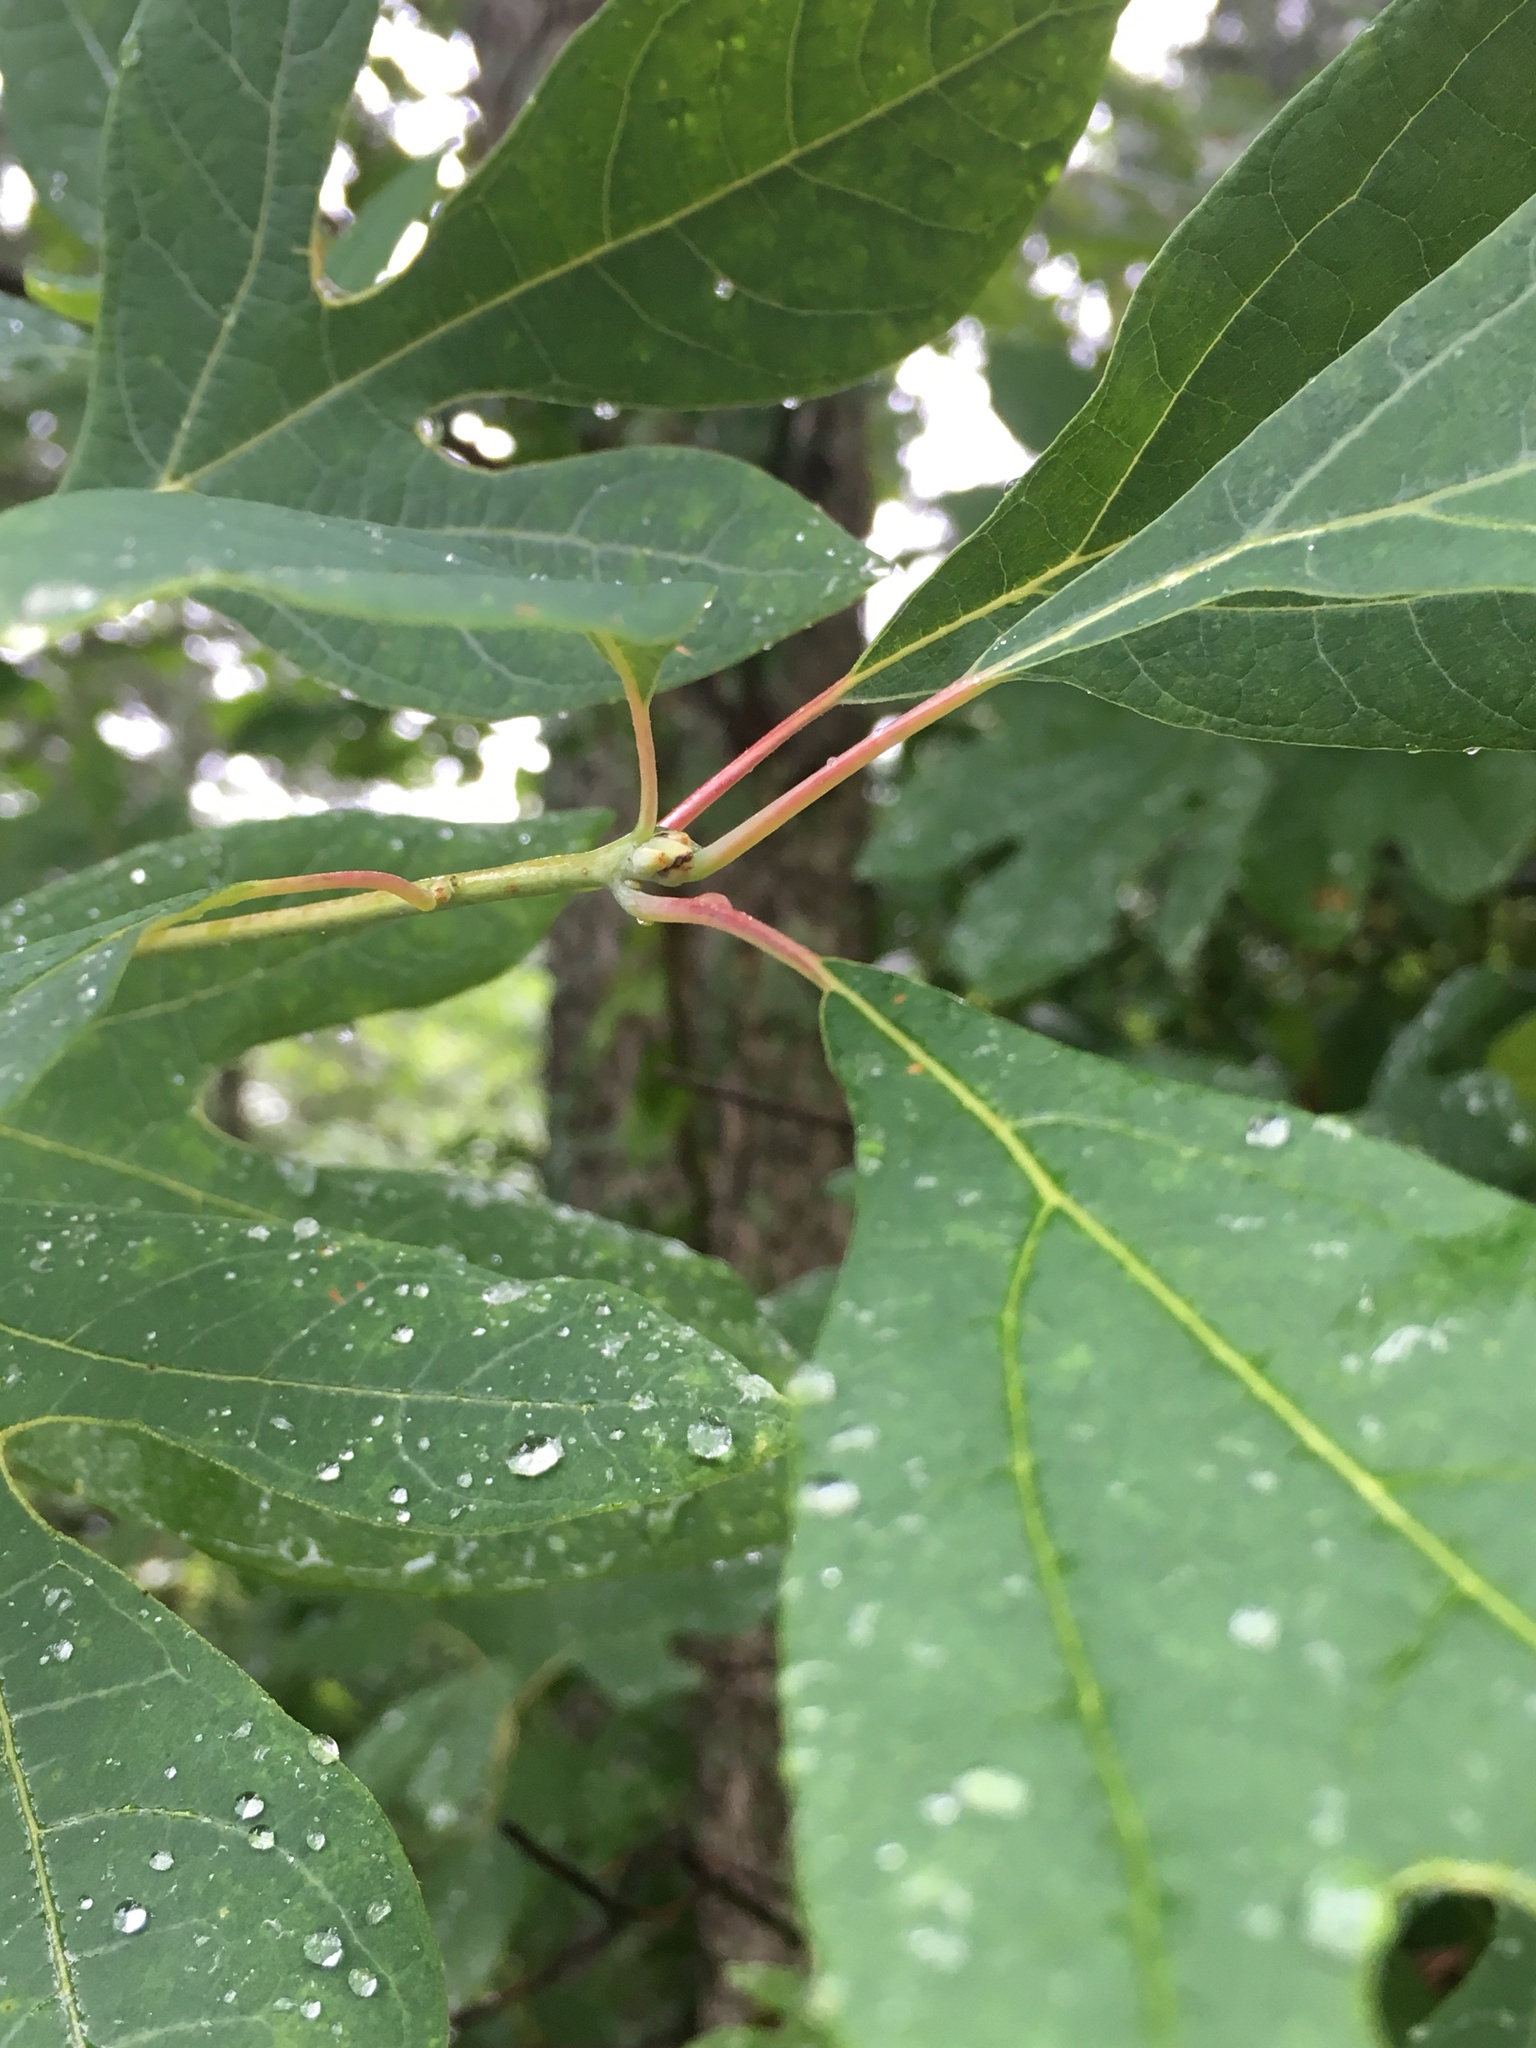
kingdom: Plantae
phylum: Tracheophyta
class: Magnoliopsida
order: Laurales
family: Lauraceae
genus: Sassafras
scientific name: Sassafras albidum
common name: Sassafras
